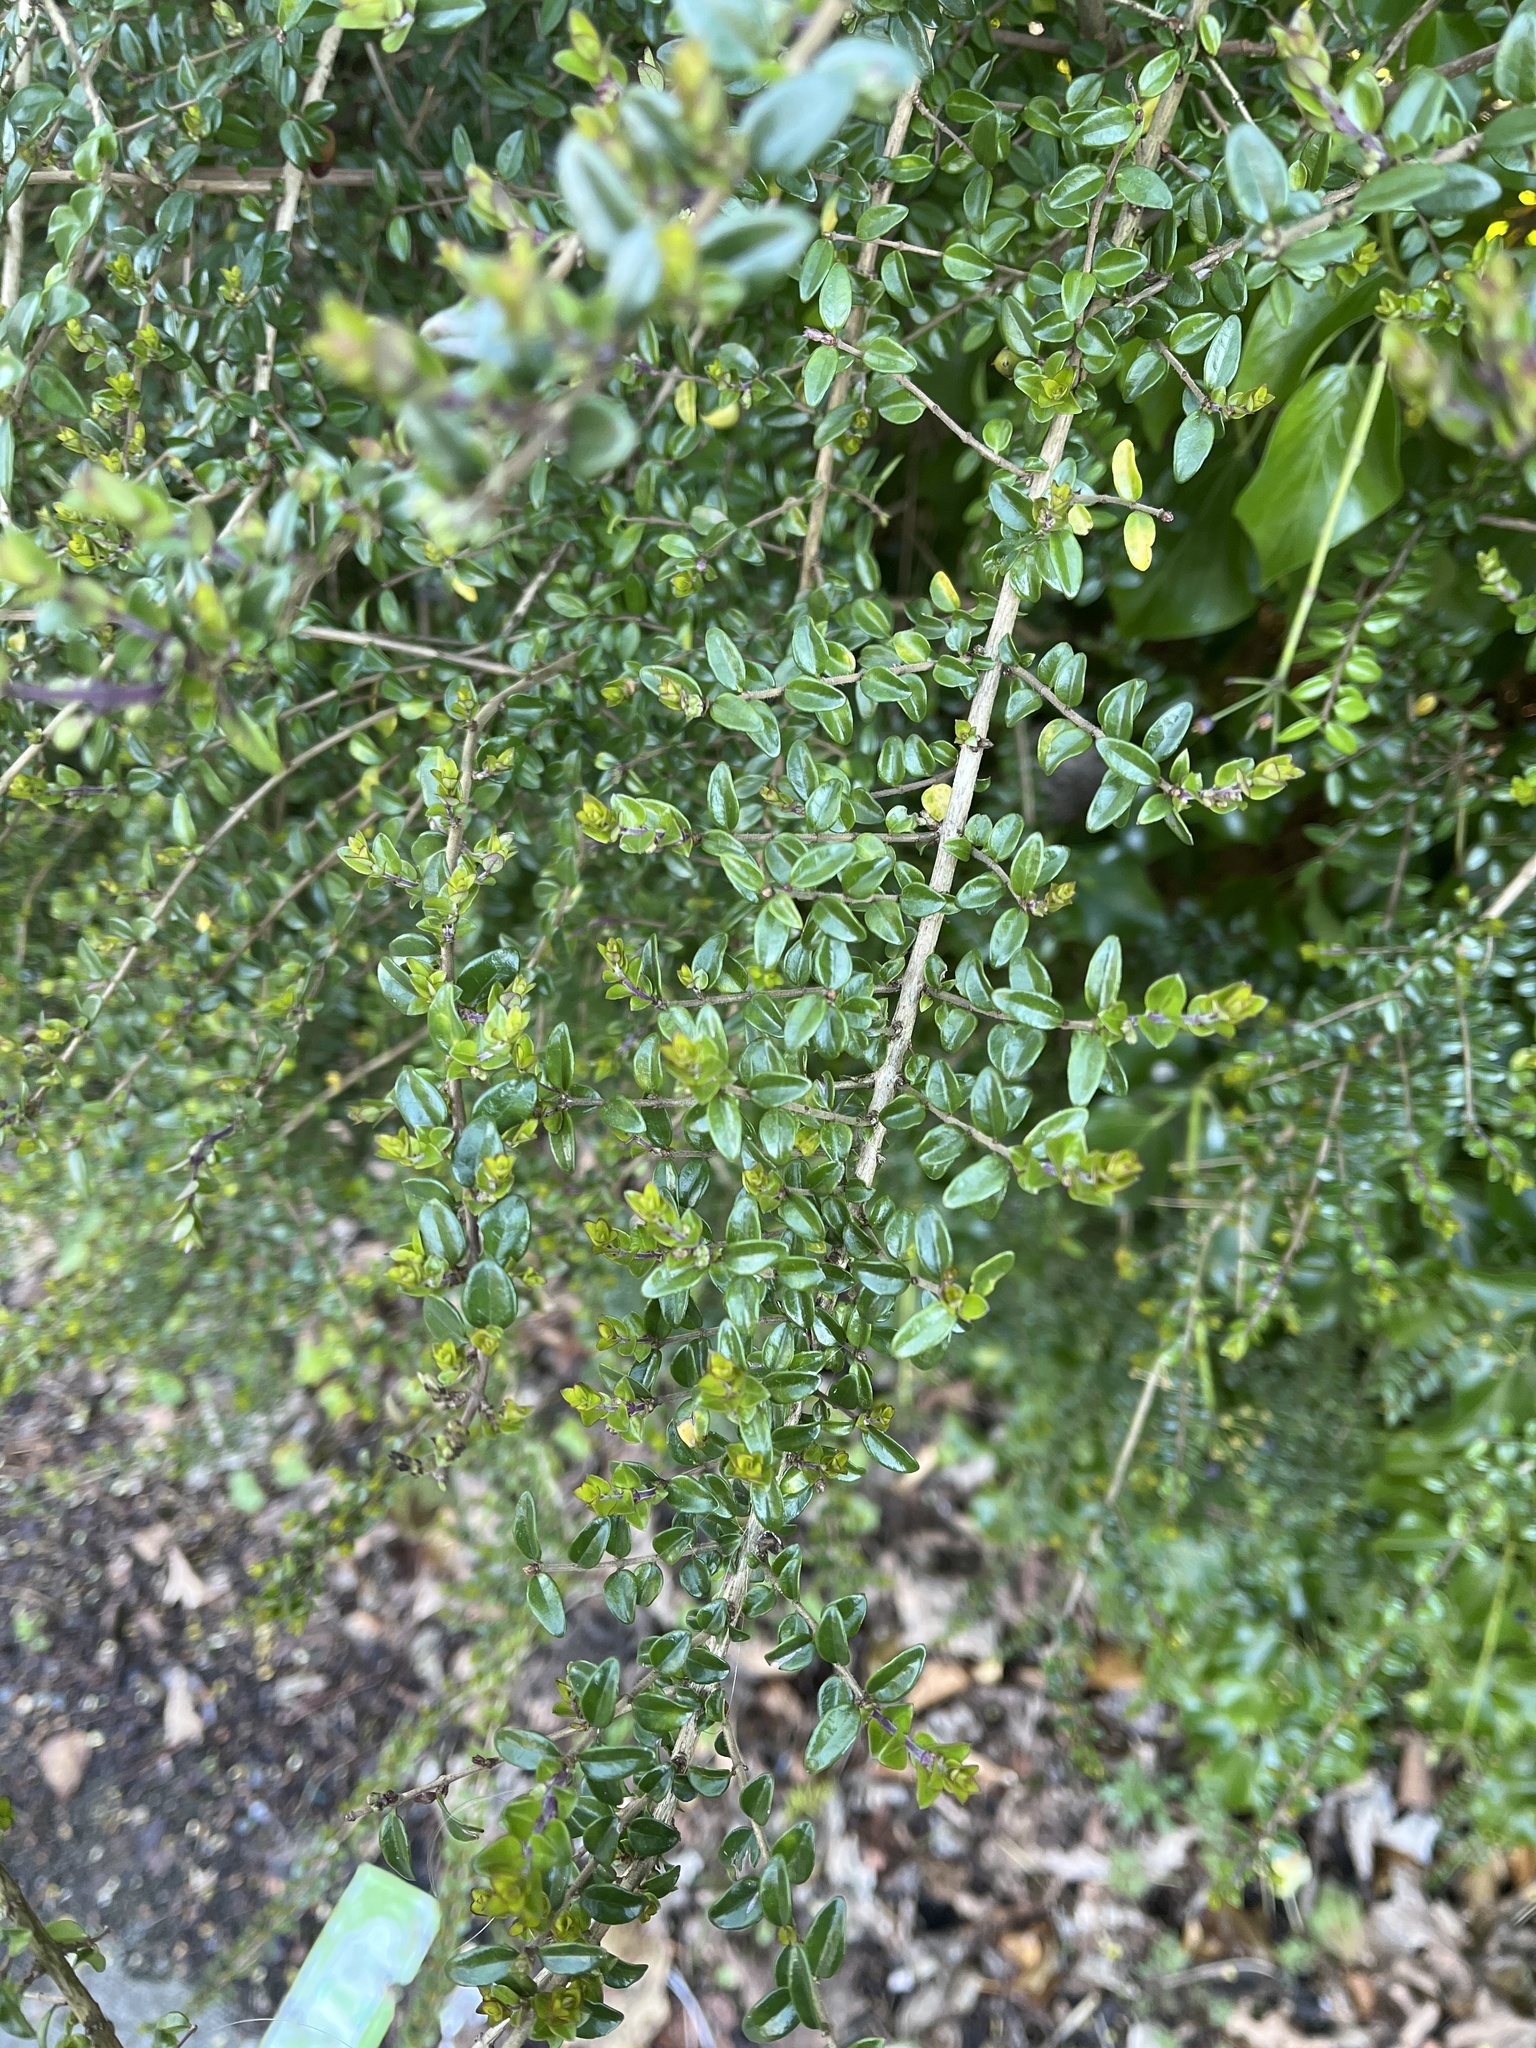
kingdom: Plantae
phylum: Tracheophyta
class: Magnoliopsida
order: Dipsacales
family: Caprifoliaceae
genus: Lonicera
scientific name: Lonicera ligustrina
